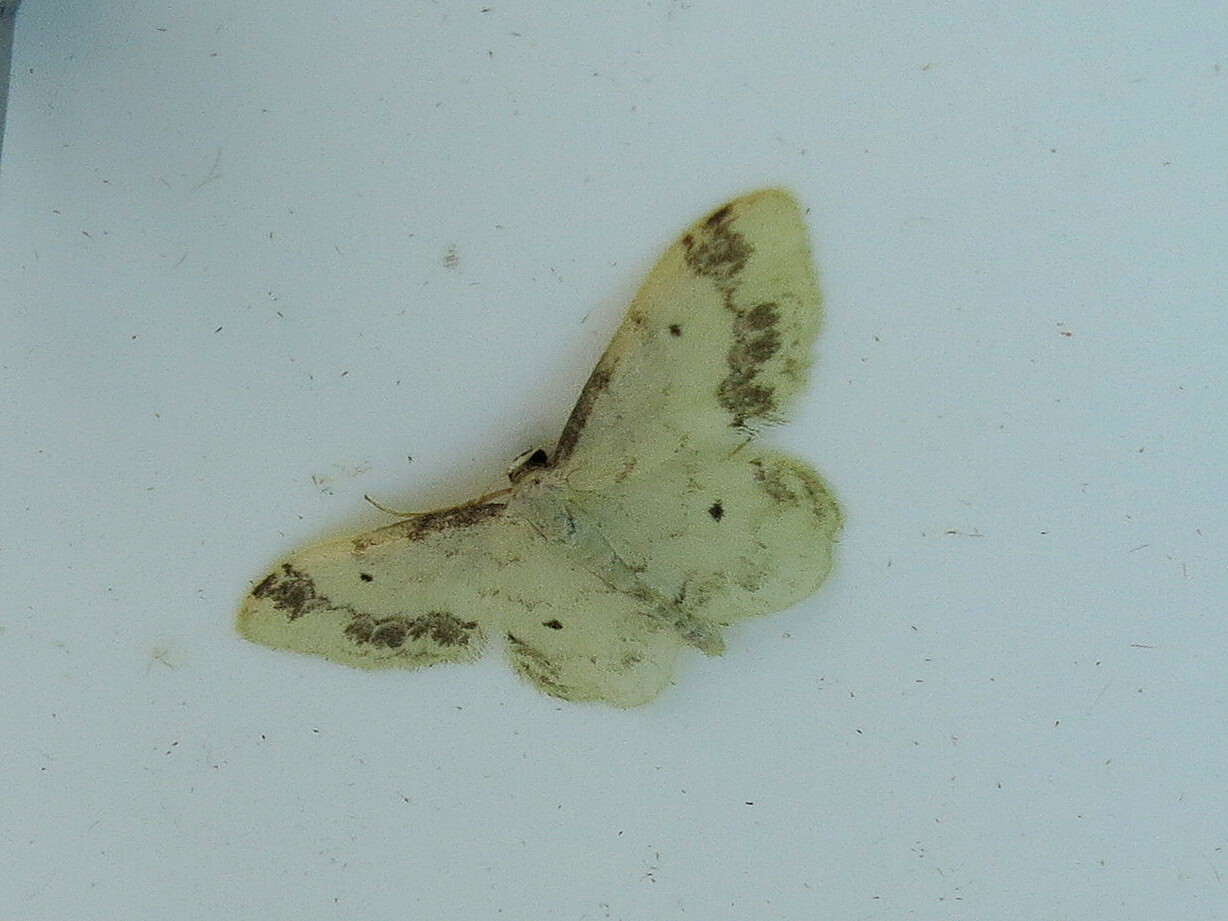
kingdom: Animalia
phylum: Arthropoda
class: Insecta
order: Lepidoptera
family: Geometridae
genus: Idaea
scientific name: Idaea trigeminata
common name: Treble brown spot
